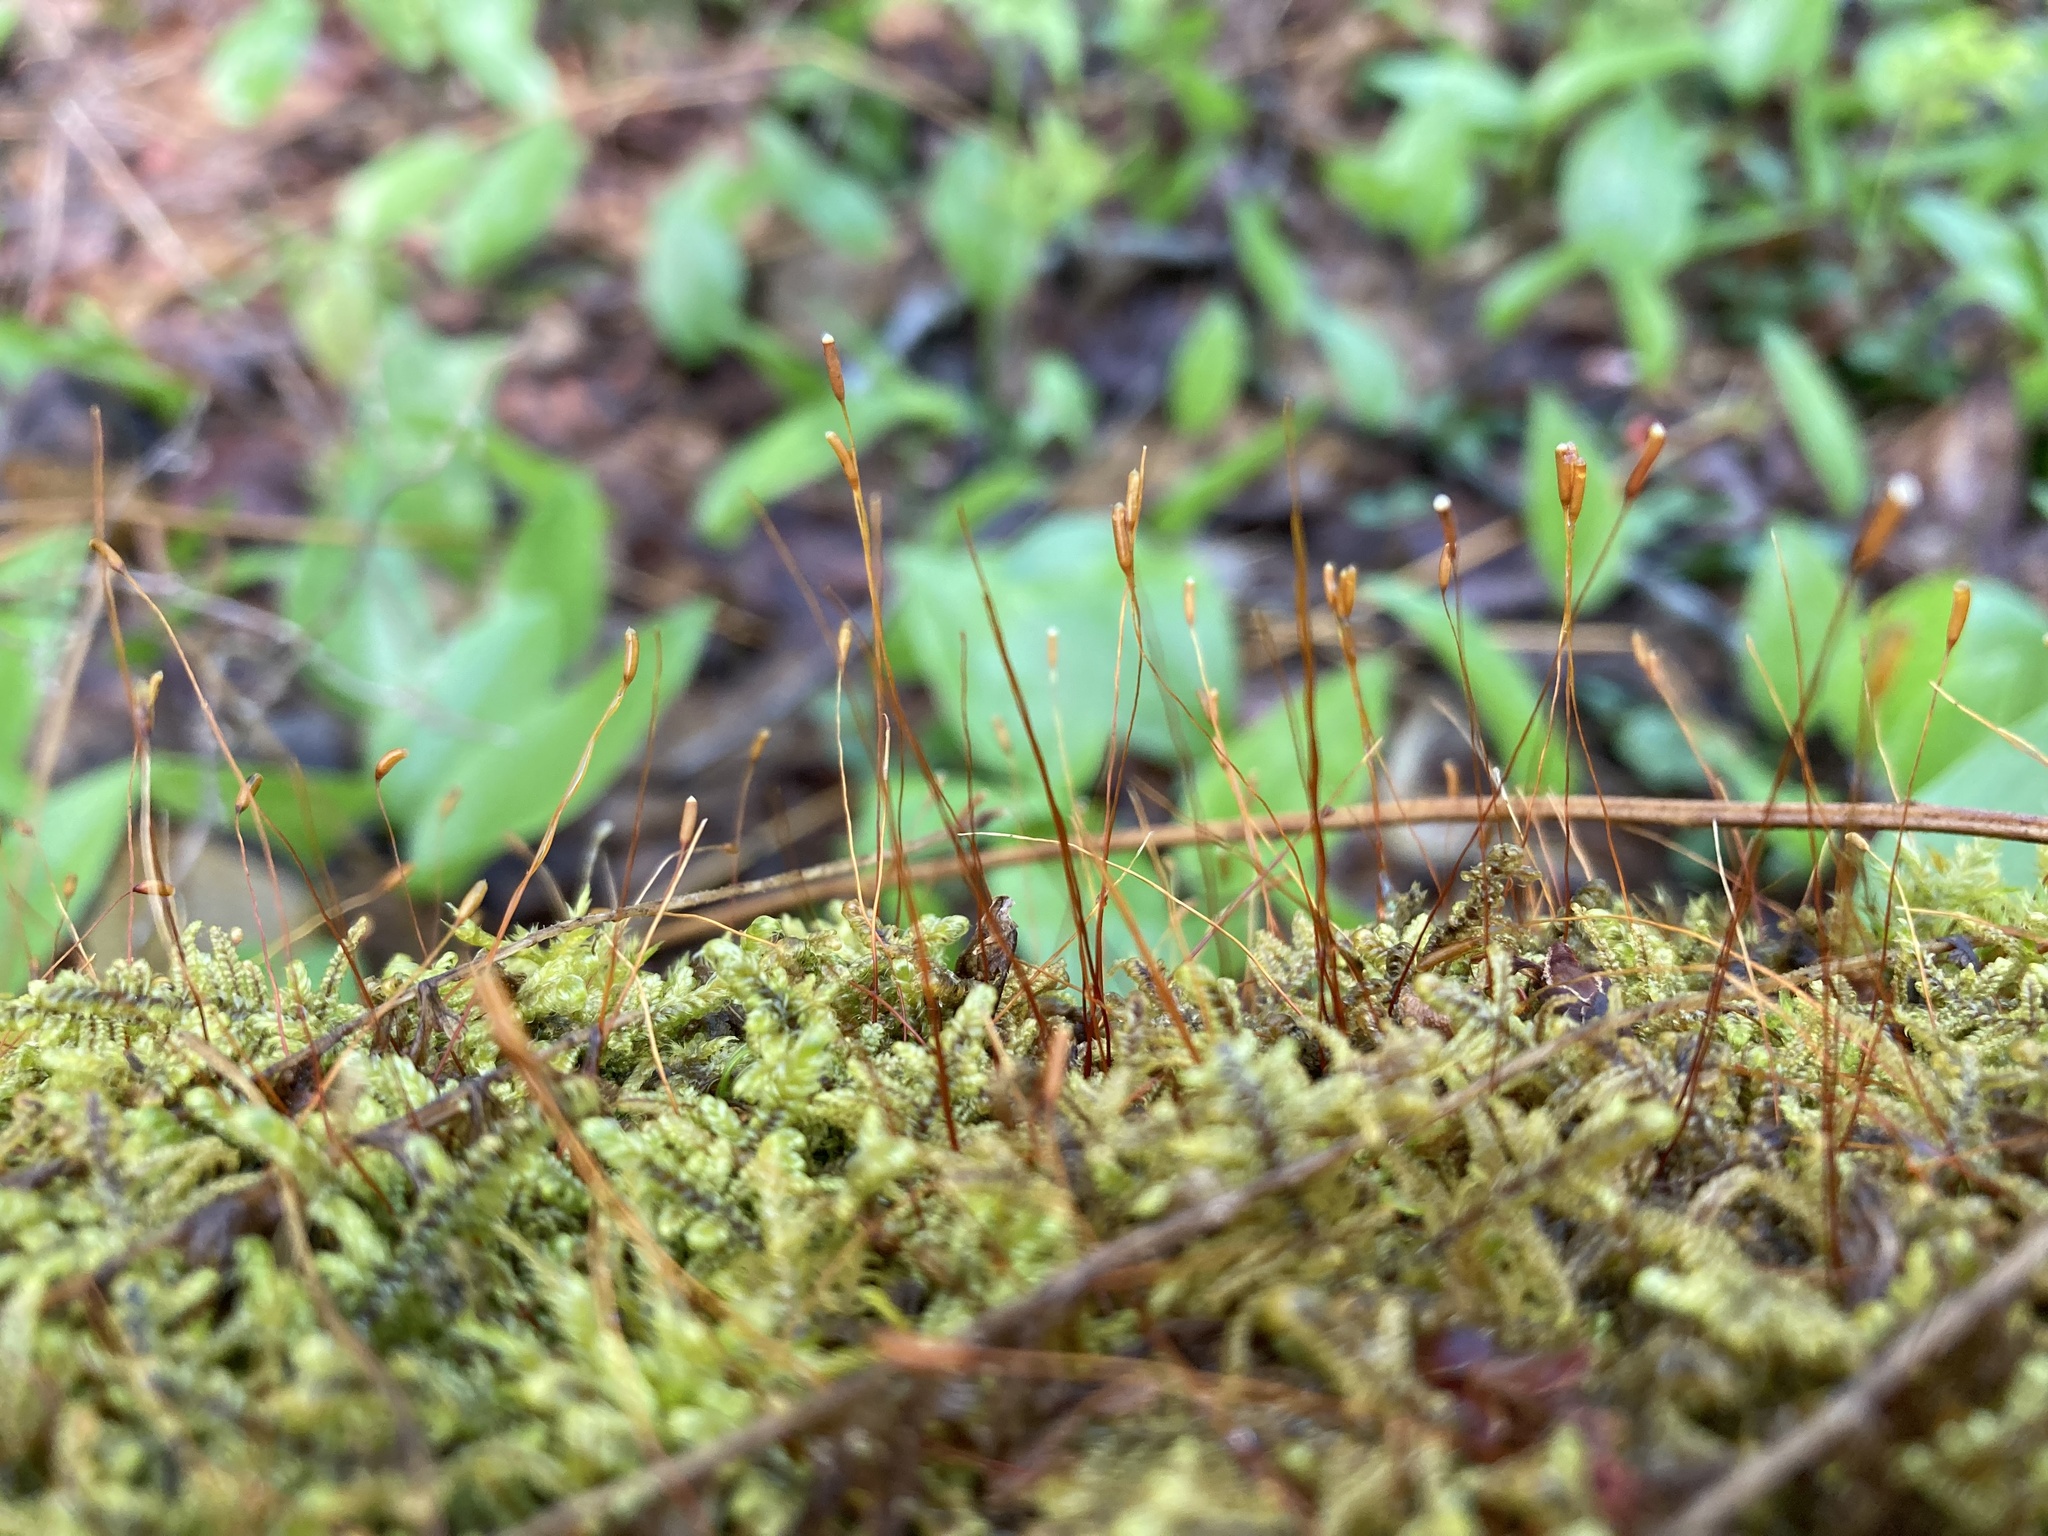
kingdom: Plantae
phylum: Bryophyta
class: Bryopsida
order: Hypnales
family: Callicladiaceae
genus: Callicladium
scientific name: Callicladium imponens
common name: Brocade moss
